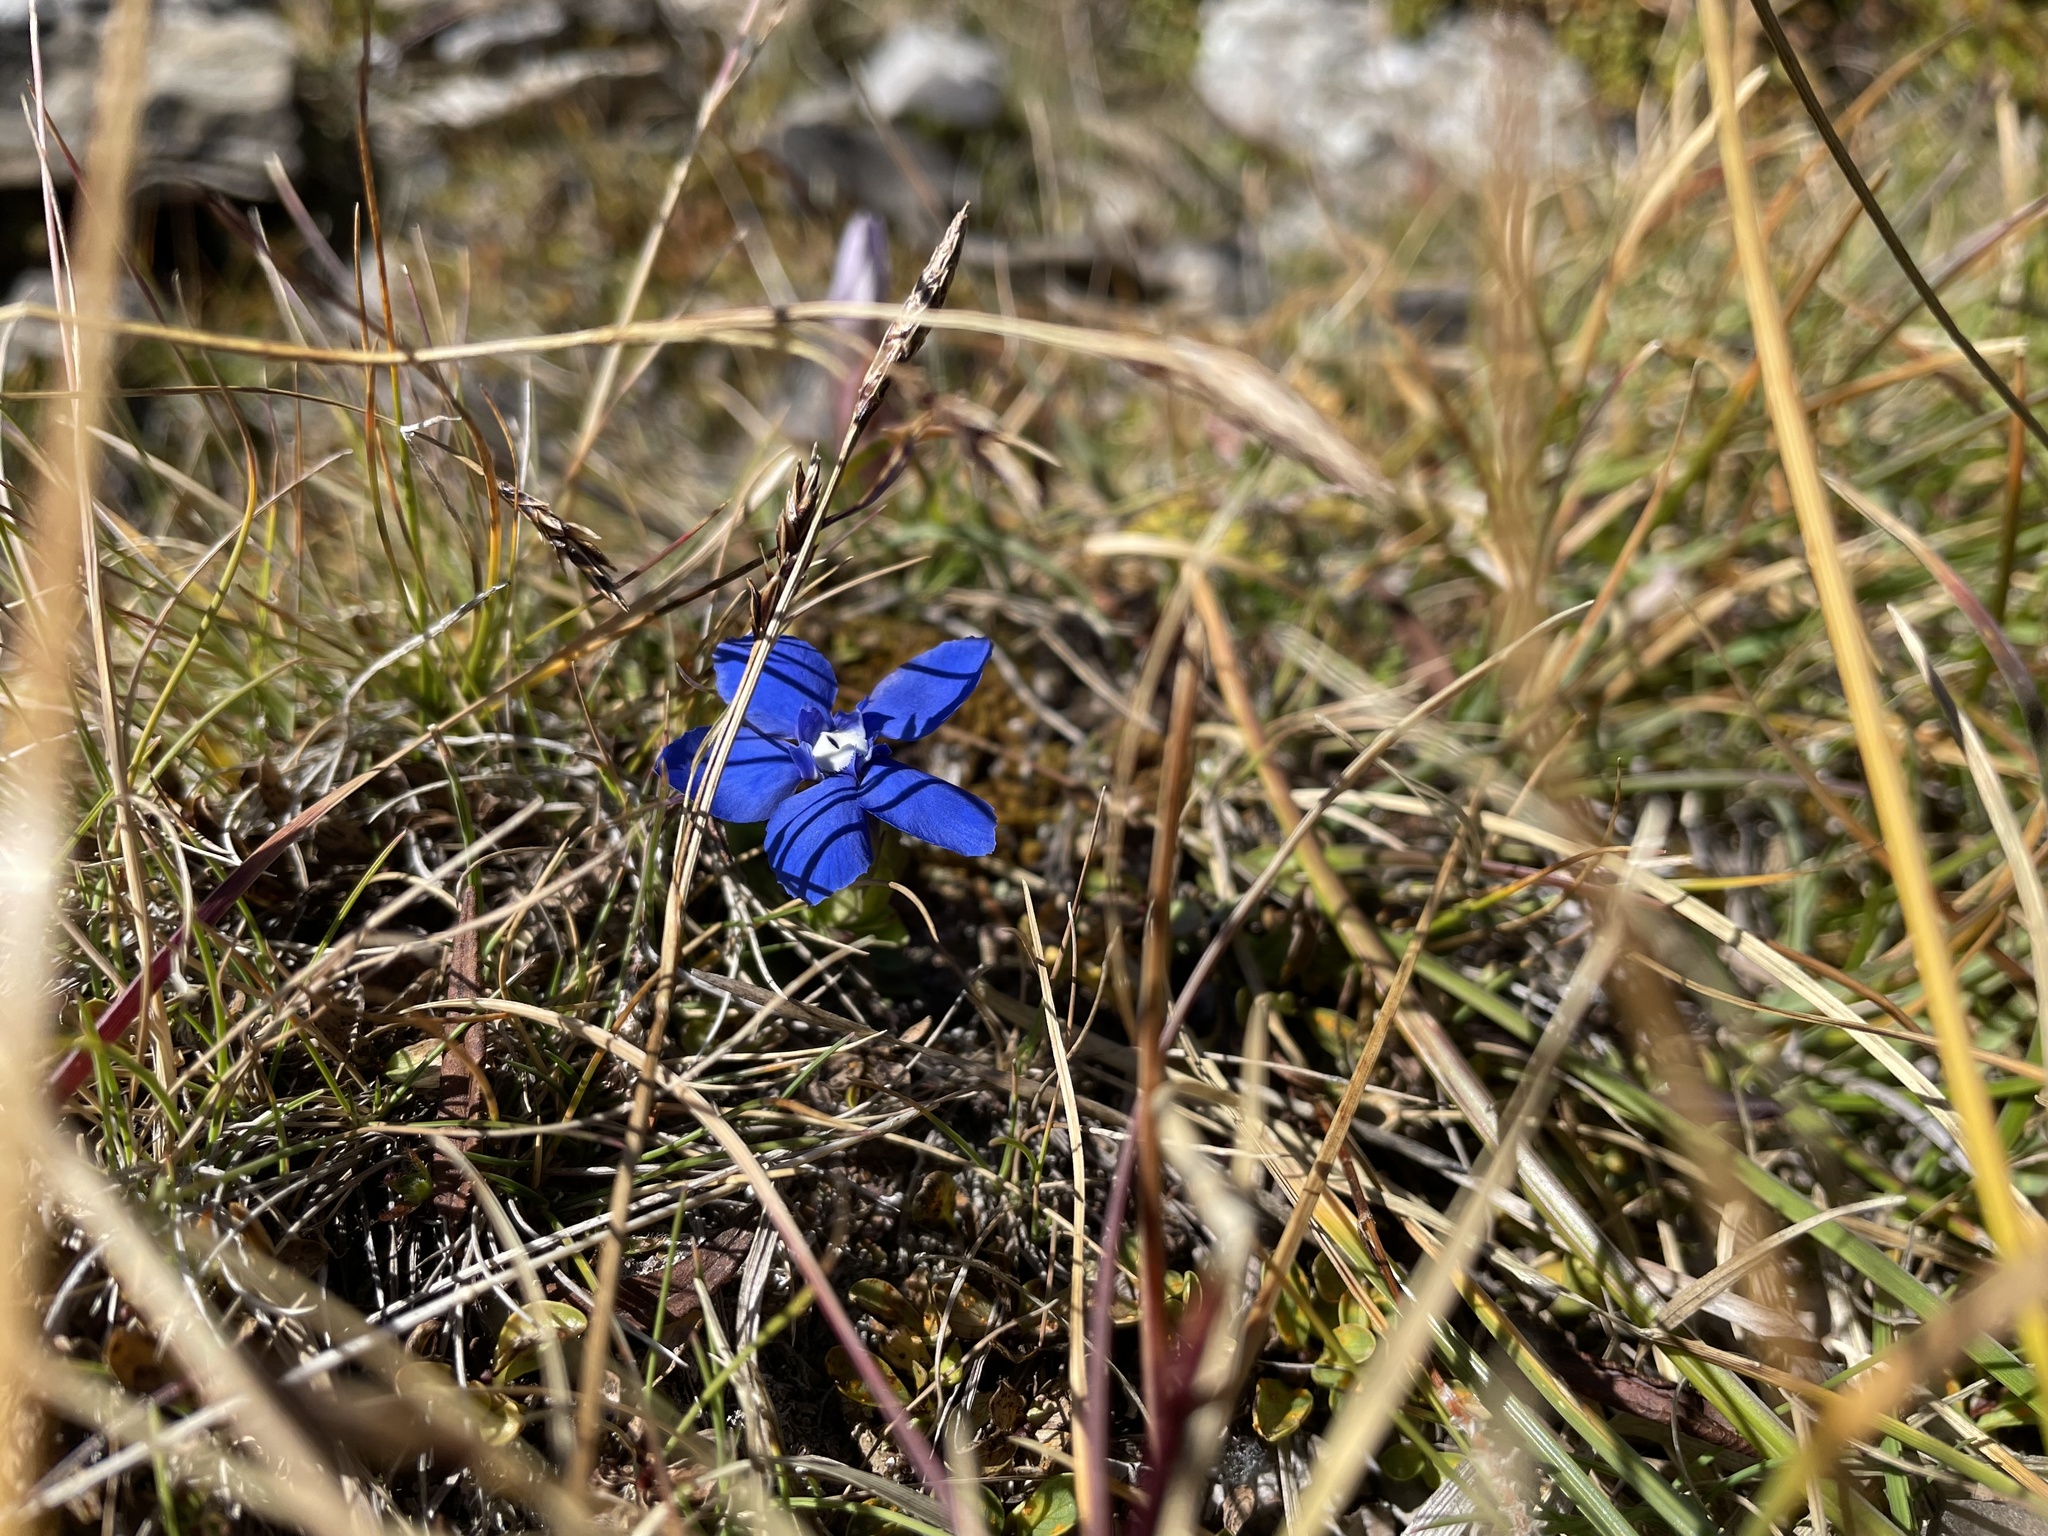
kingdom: Plantae
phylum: Tracheophyta
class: Magnoliopsida
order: Gentianales
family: Gentianaceae
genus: Gentiana
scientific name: Gentiana verna
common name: Spring gentian
